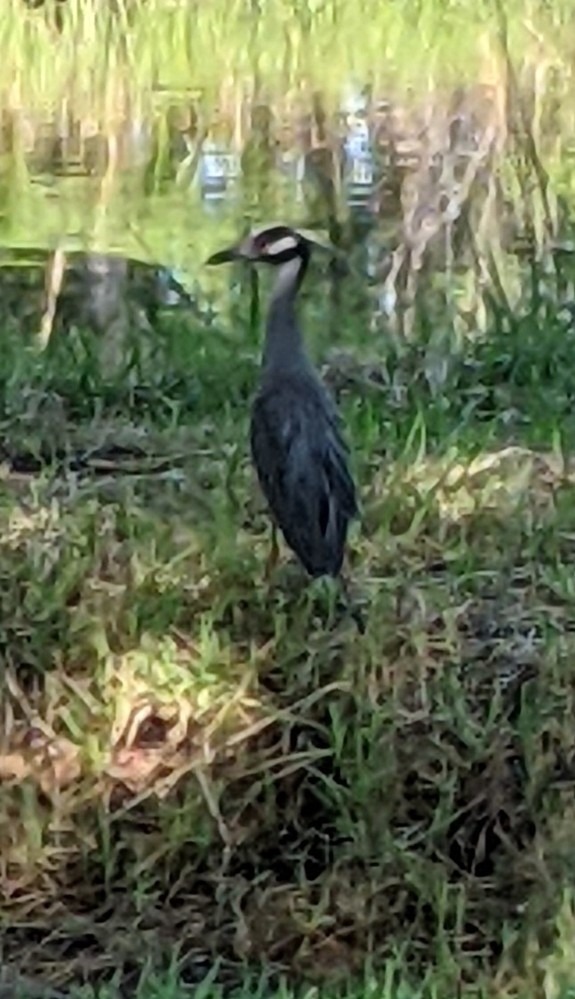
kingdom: Animalia
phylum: Chordata
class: Aves
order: Pelecaniformes
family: Ardeidae
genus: Nyctanassa
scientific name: Nyctanassa violacea
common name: Yellow-crowned night heron
